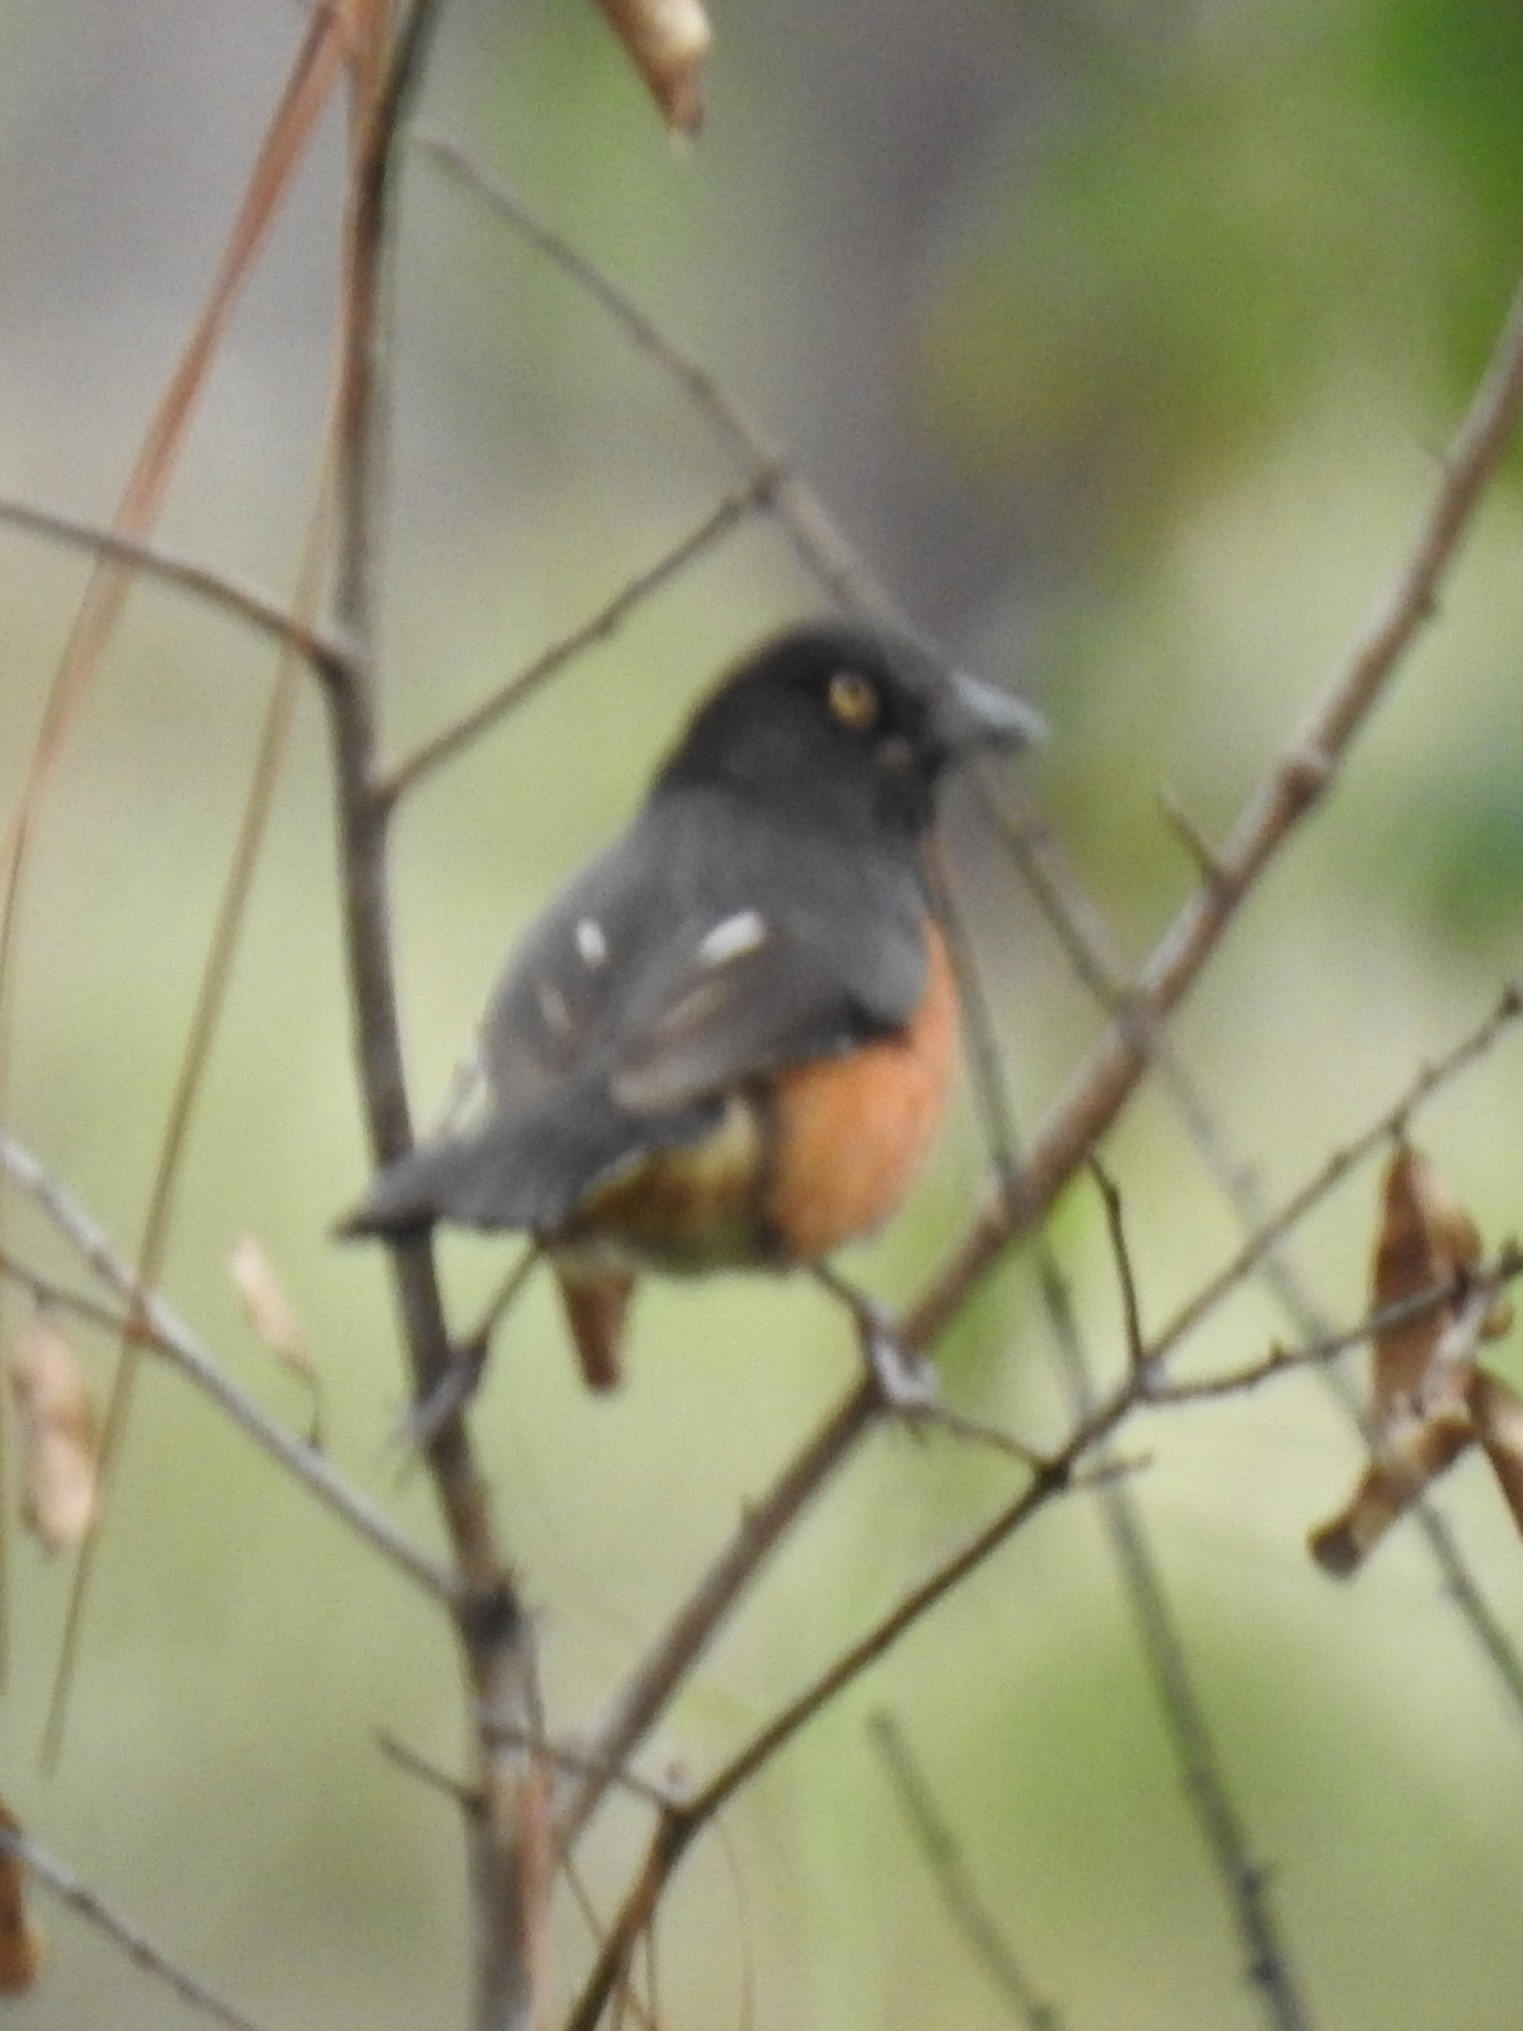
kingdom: Animalia
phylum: Chordata
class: Aves
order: Passeriformes
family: Passerellidae
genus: Pipilo
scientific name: Pipilo erythrophthalmus
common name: Eastern towhee
